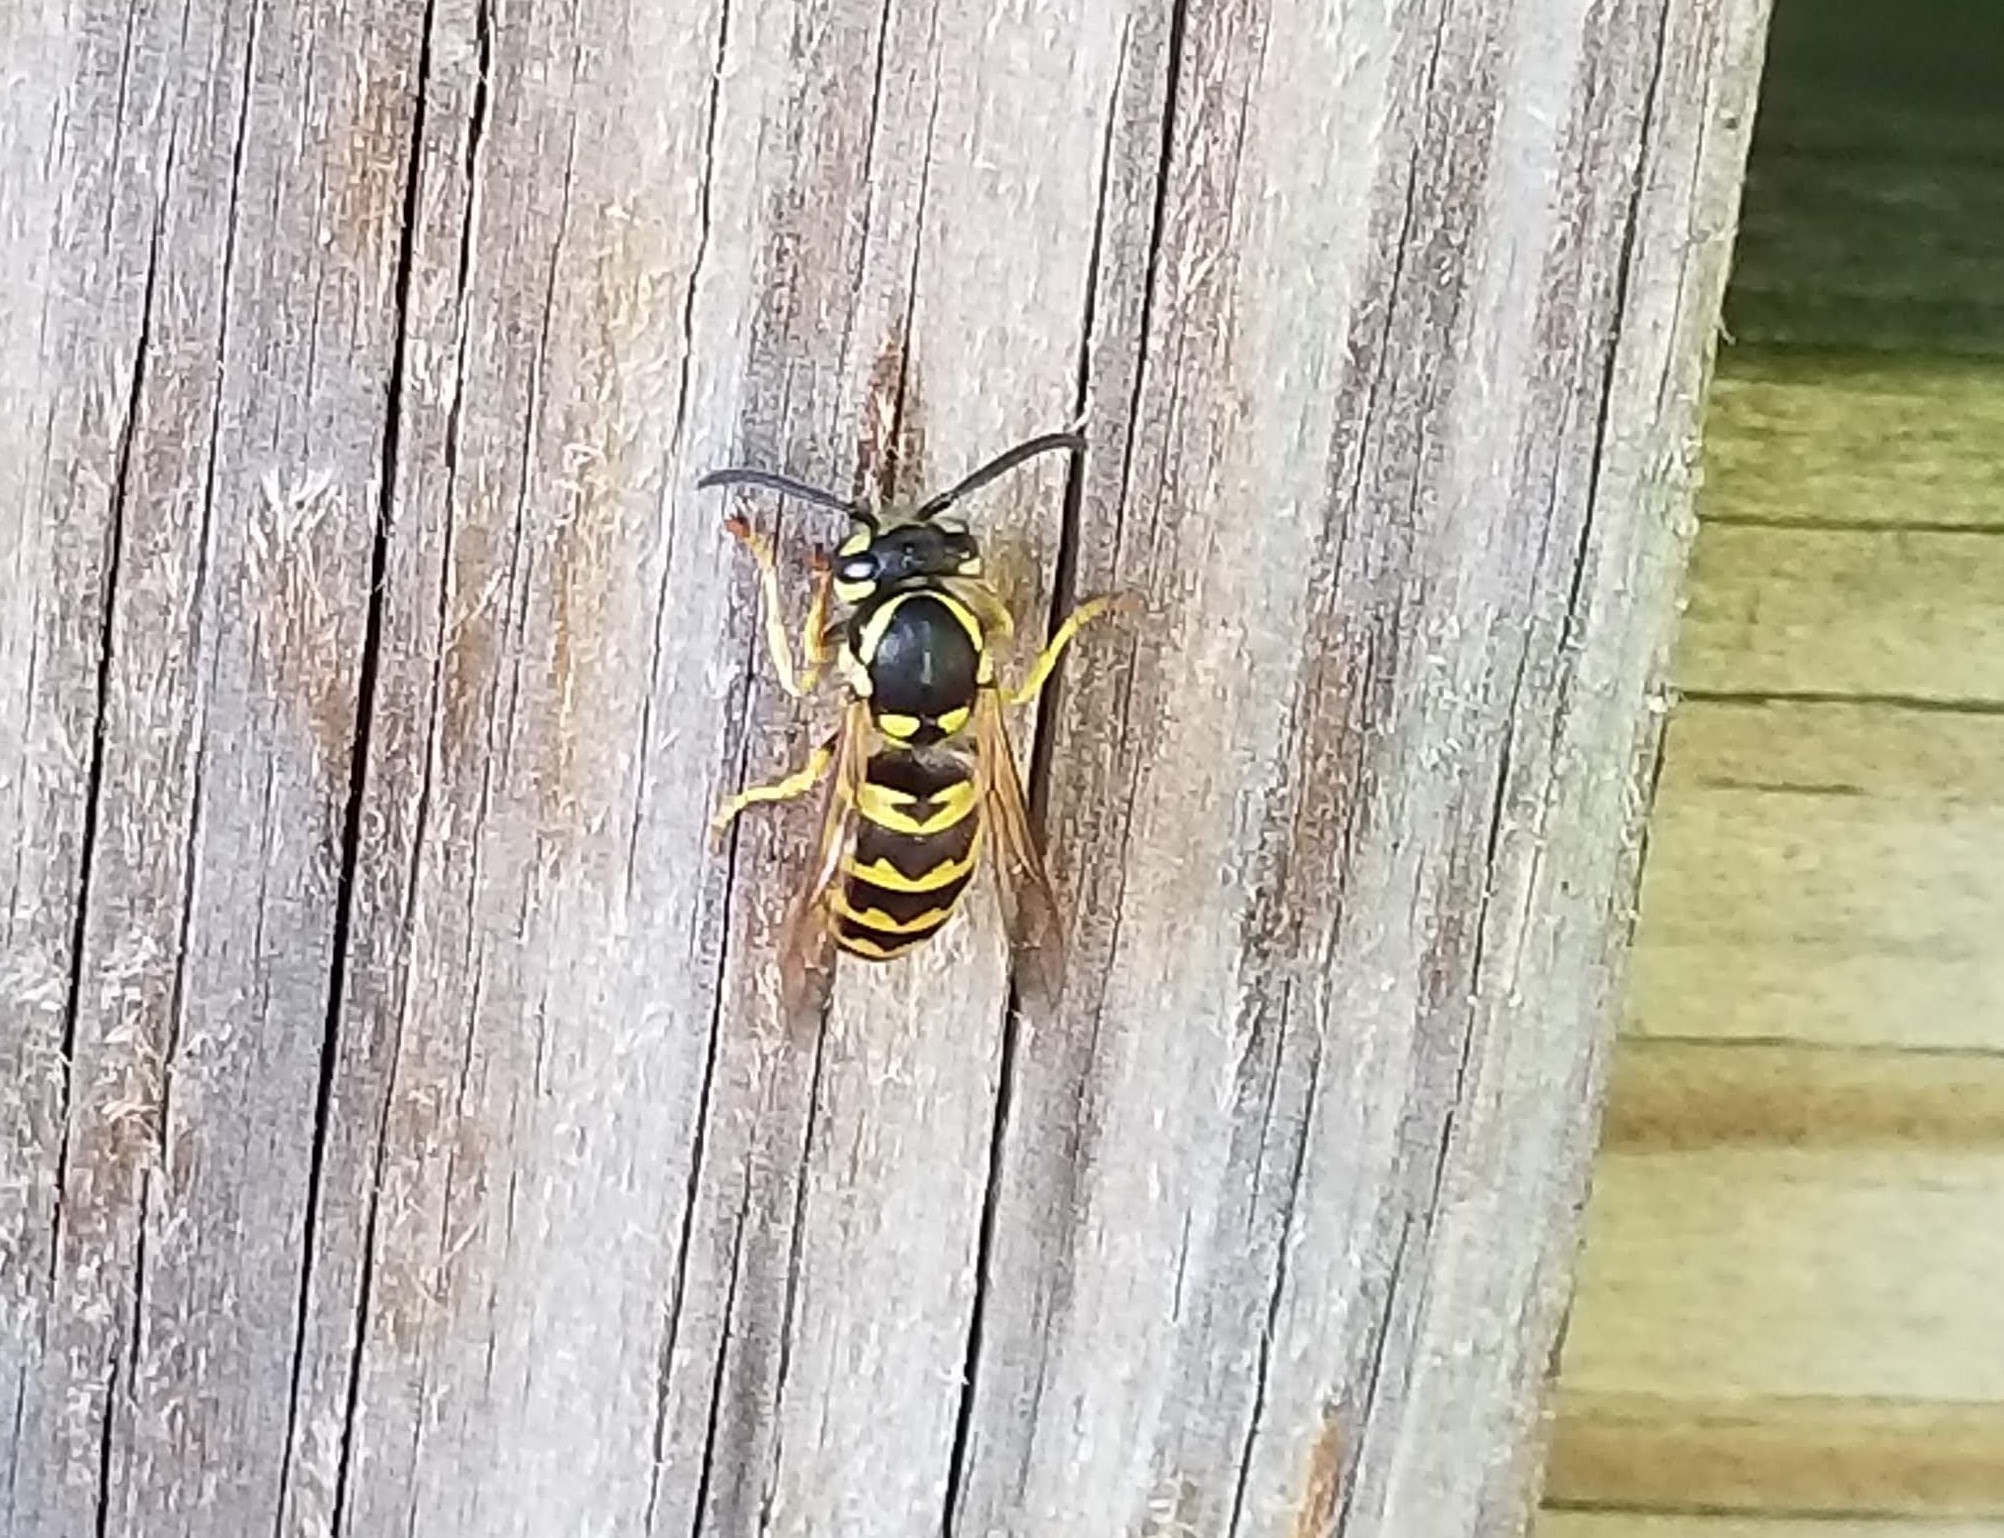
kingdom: Animalia
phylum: Arthropoda
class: Insecta
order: Hymenoptera
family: Vespidae
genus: Vespula
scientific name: Vespula maculifrons
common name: Eastern yellowjacket
